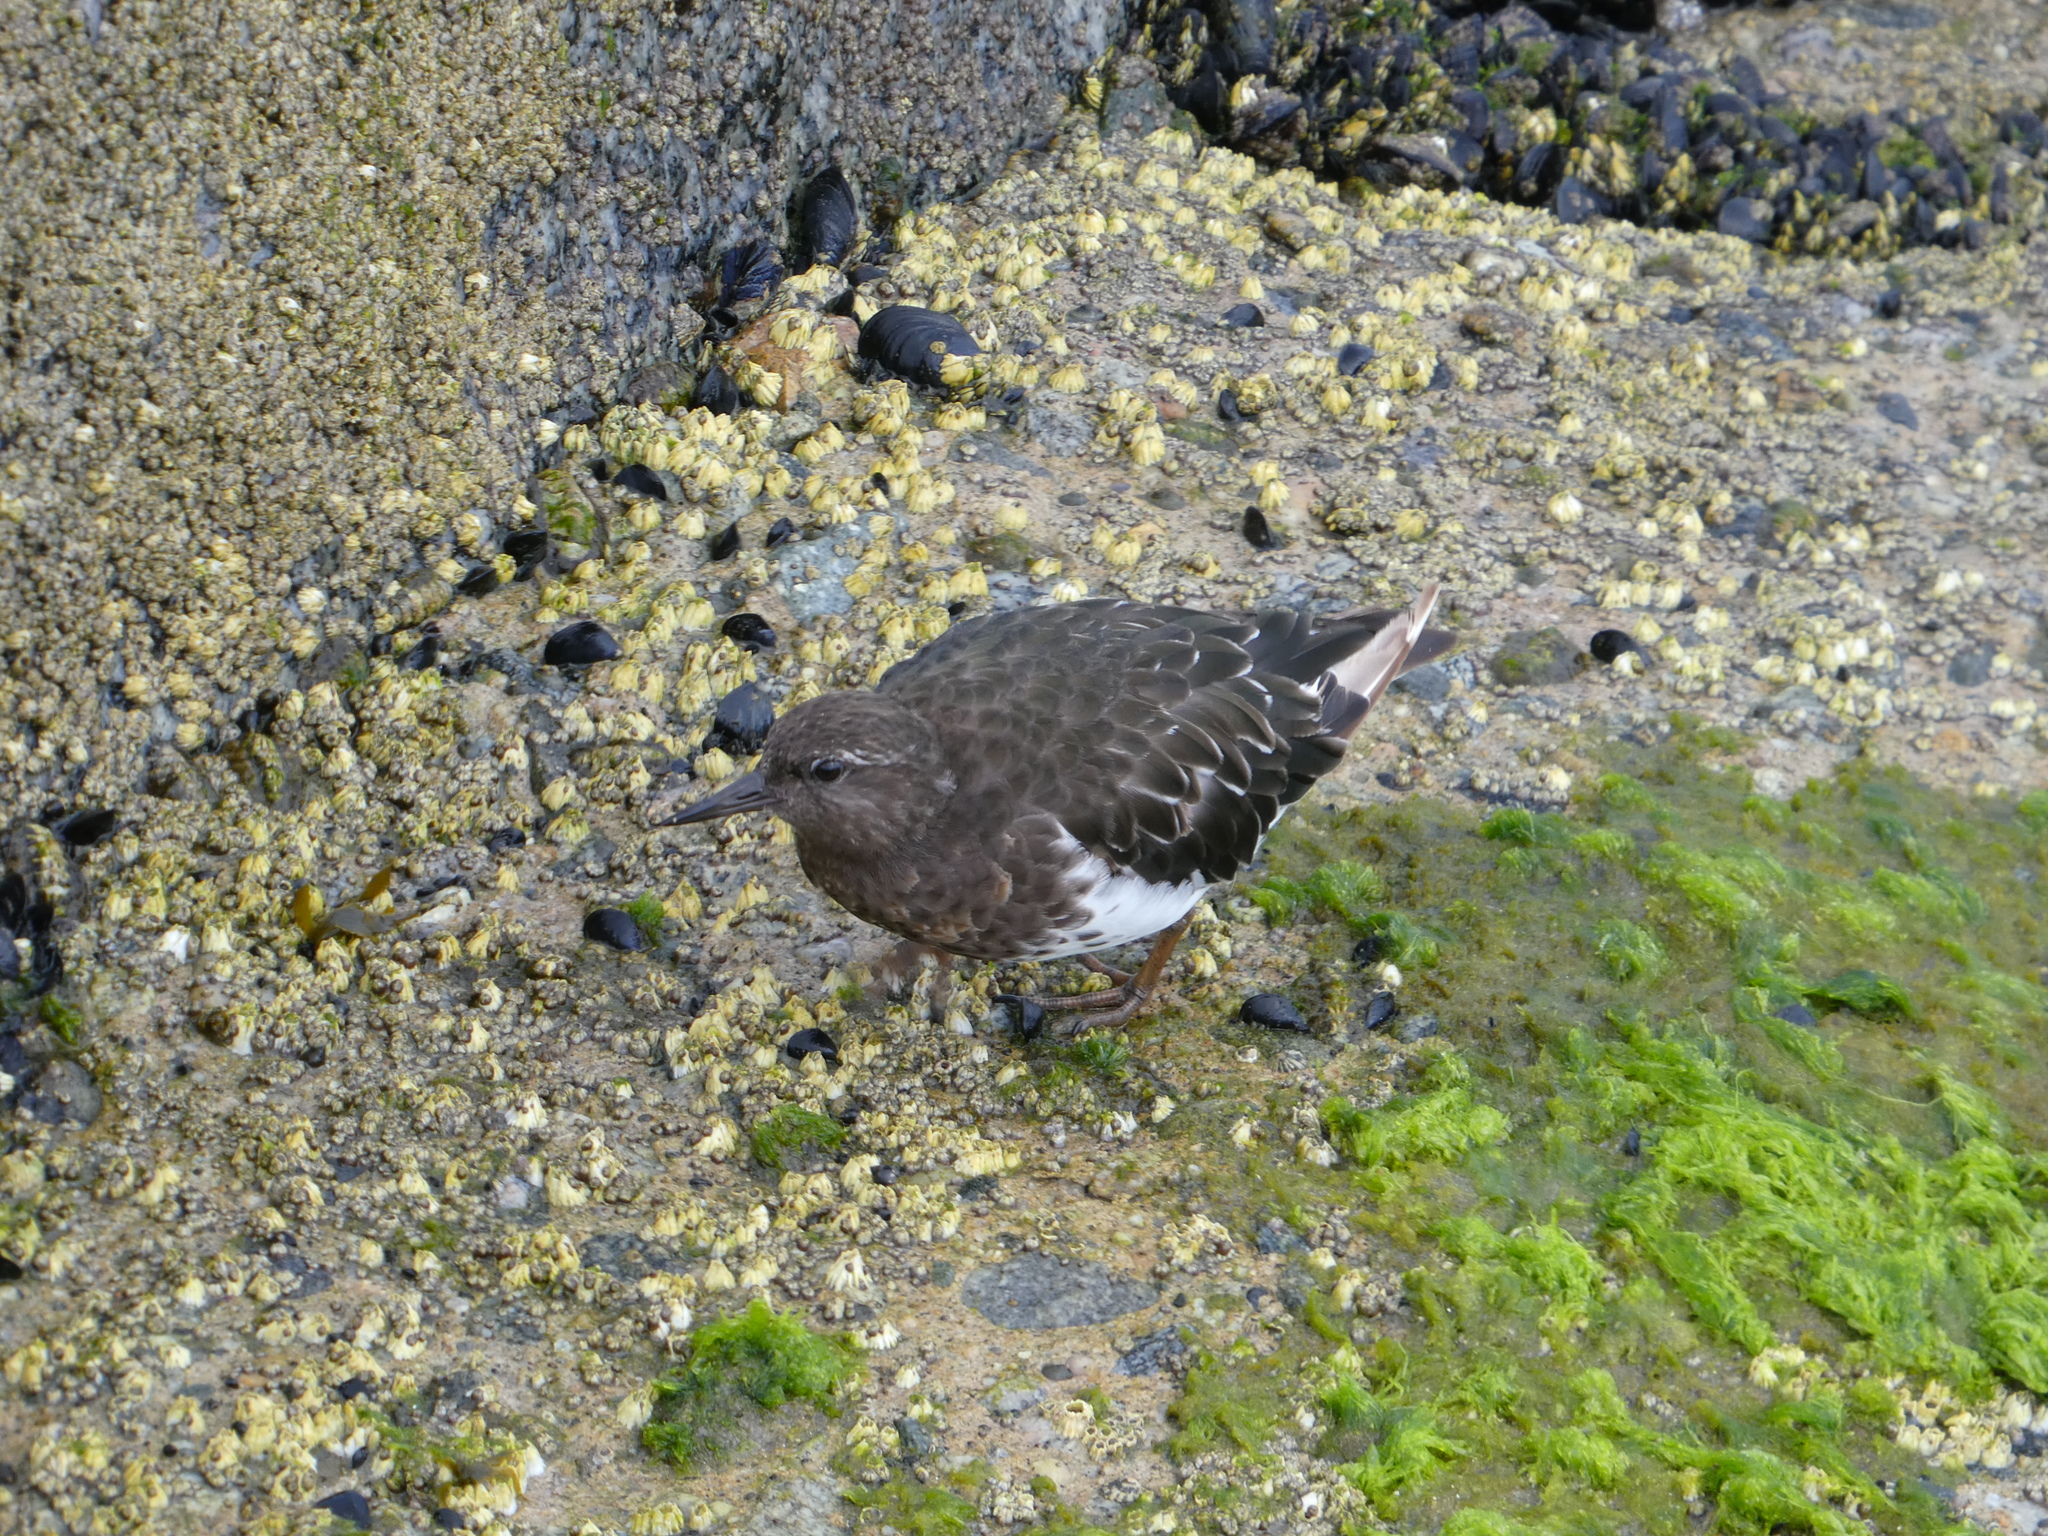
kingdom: Animalia
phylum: Chordata
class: Aves
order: Charadriiformes
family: Scolopacidae
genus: Arenaria
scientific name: Arenaria melanocephala
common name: Black turnstone
